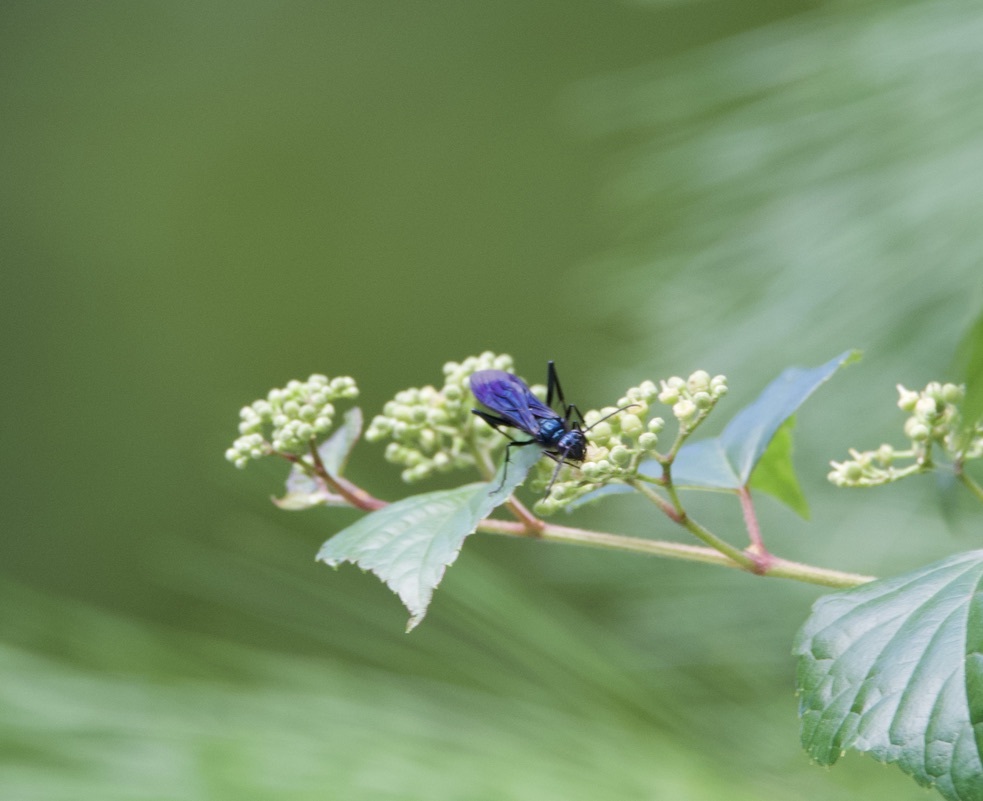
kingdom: Animalia
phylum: Arthropoda
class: Insecta
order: Hymenoptera
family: Sphecidae
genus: Chalybion
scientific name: Chalybion californicum
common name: Mud dauber
